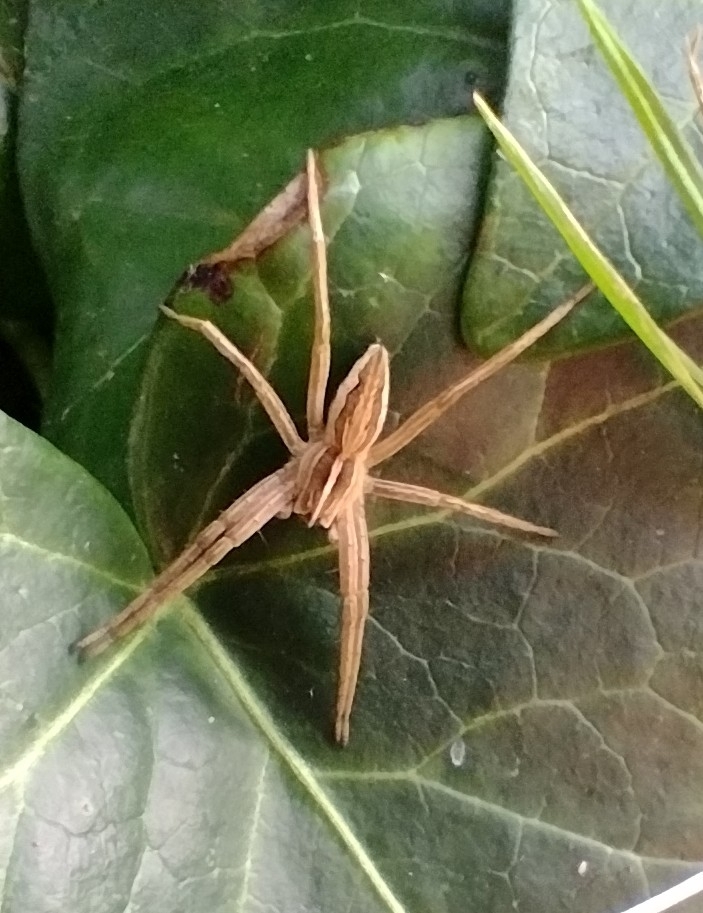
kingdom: Animalia
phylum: Arthropoda
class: Arachnida
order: Araneae
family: Pisauridae
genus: Pisaura
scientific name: Pisaura mirabilis
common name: Tent spider
